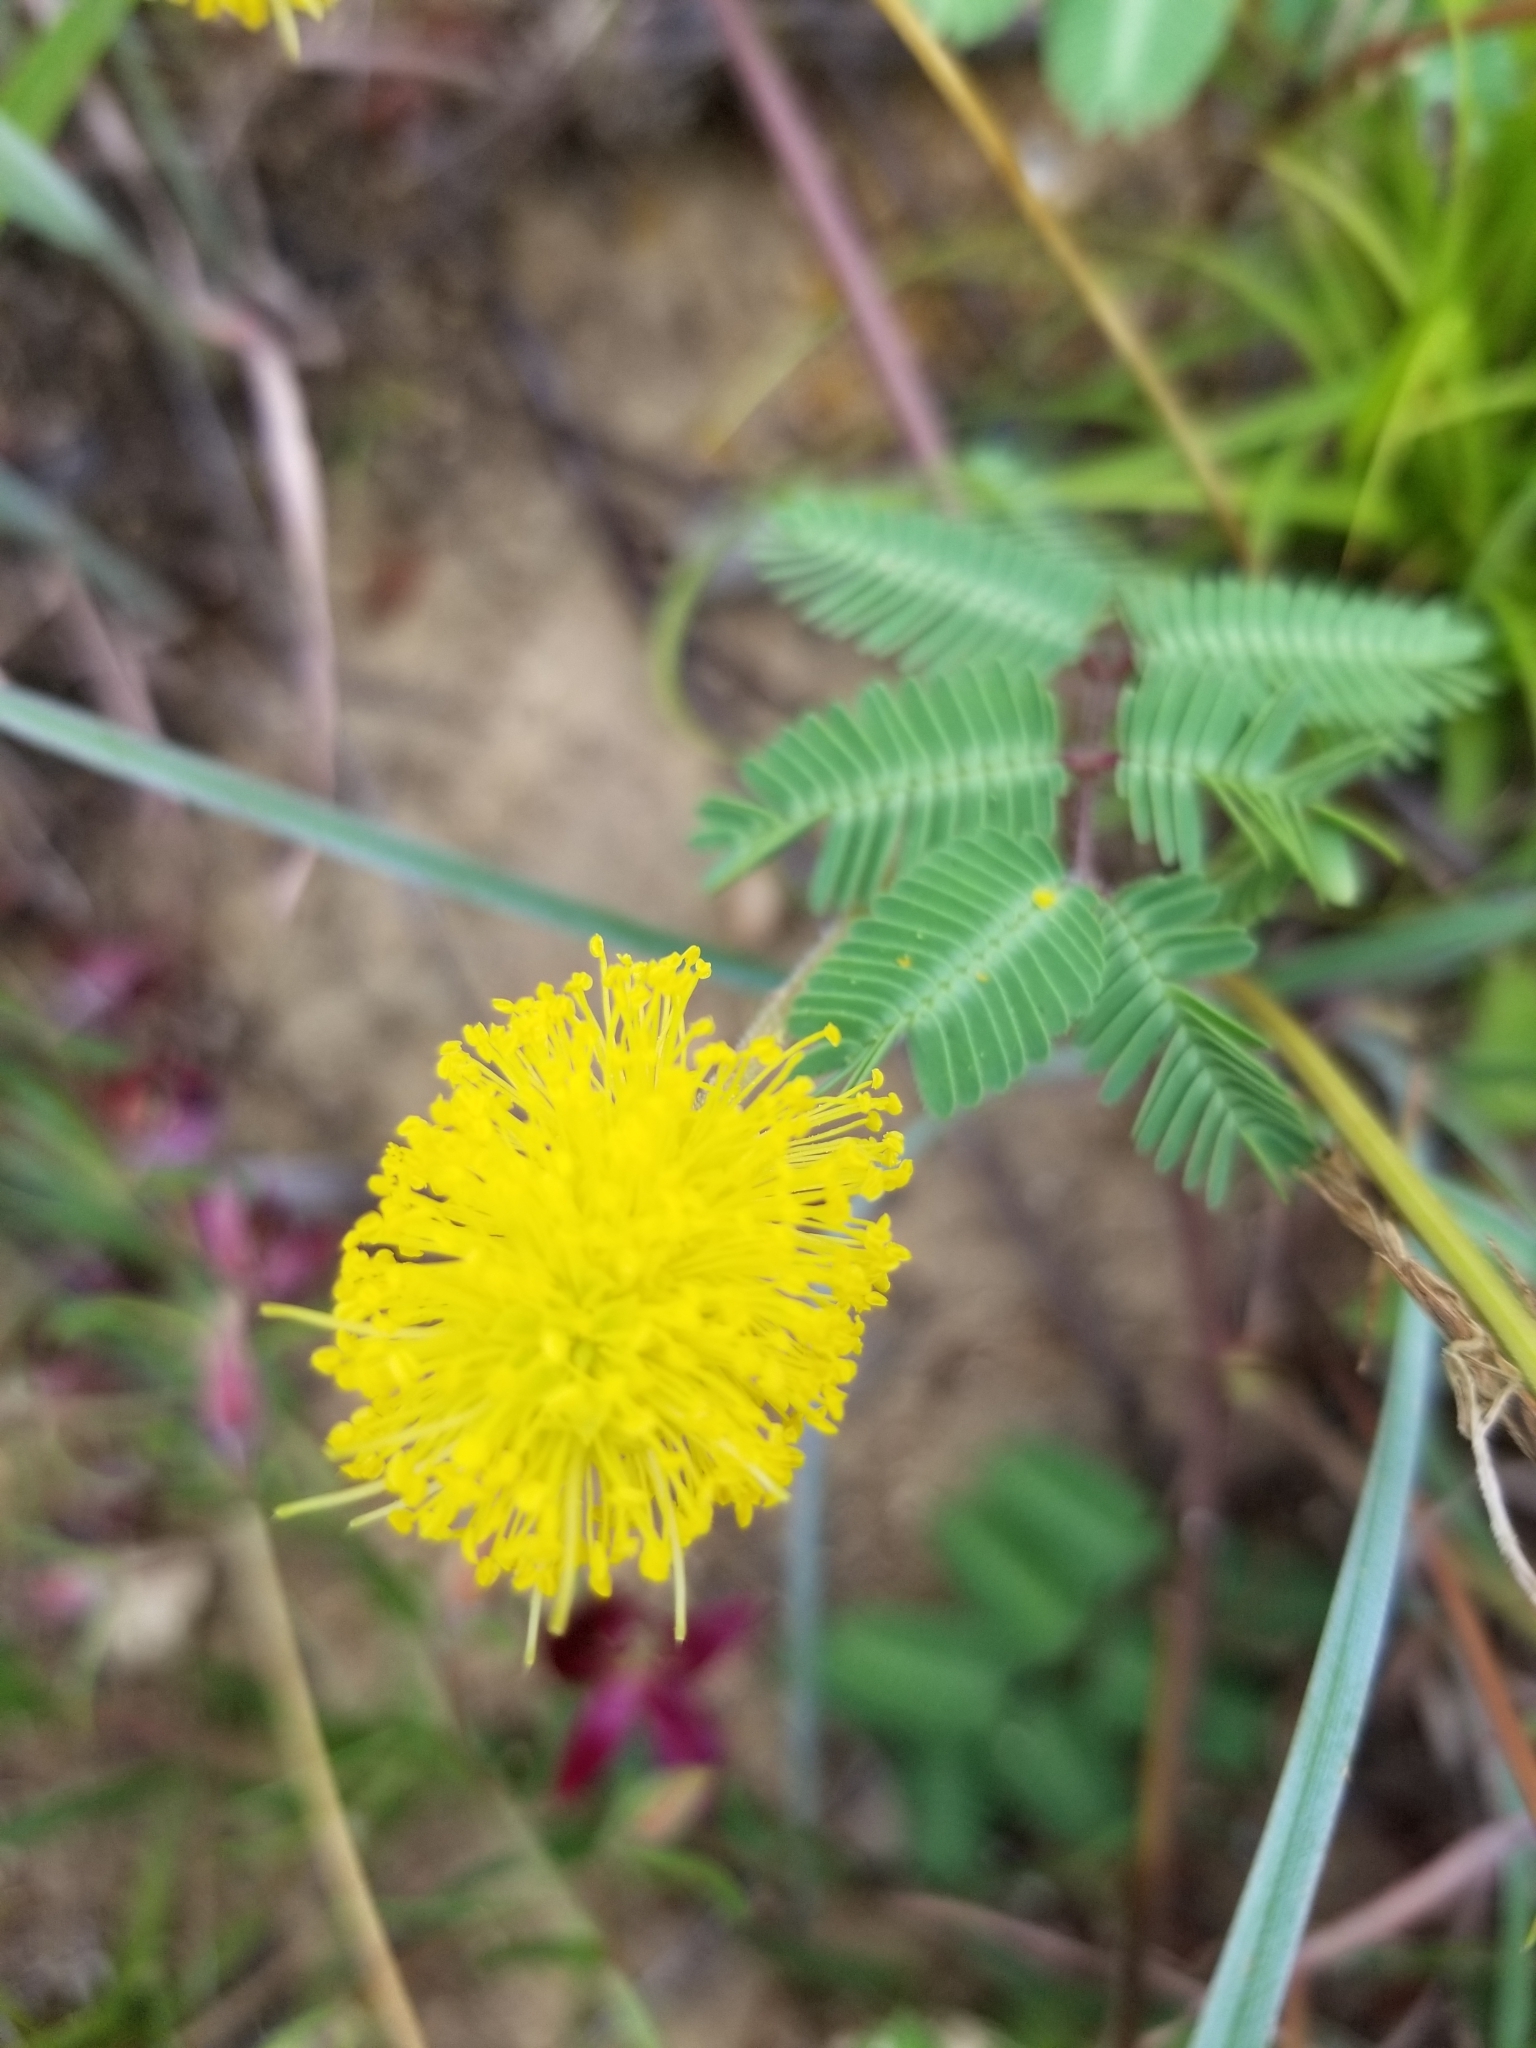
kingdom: Plantae
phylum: Tracheophyta
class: Magnoliopsida
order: Fabales
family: Fabaceae
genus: Neptunia
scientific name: Neptunia lutea
